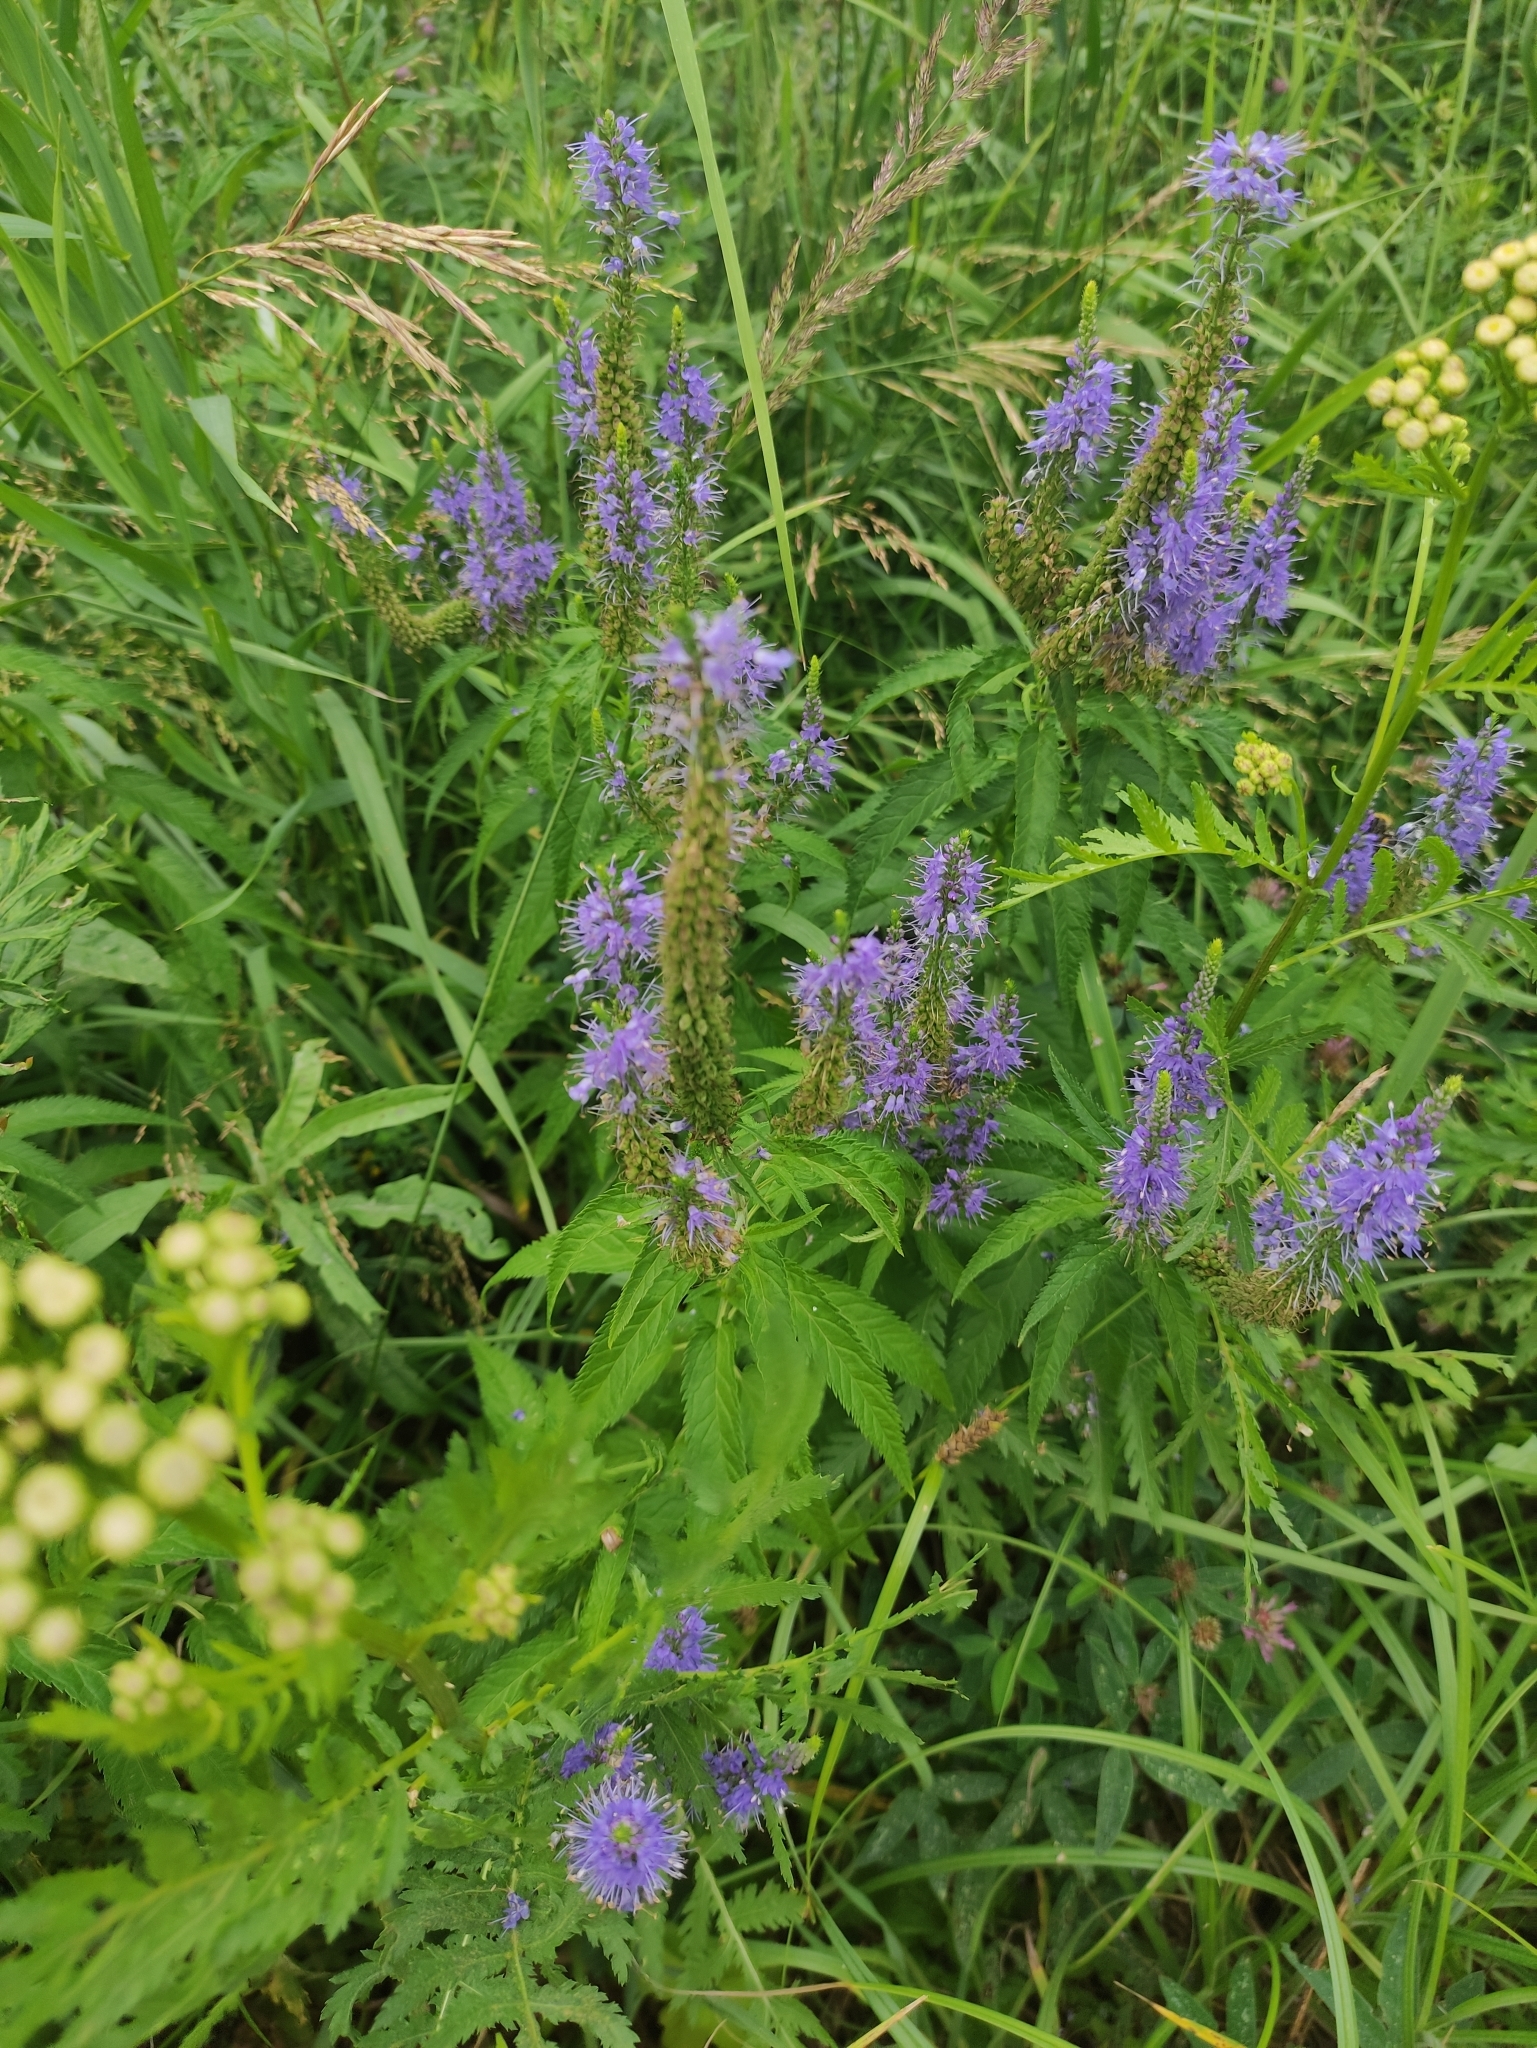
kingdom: Plantae
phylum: Tracheophyta
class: Magnoliopsida
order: Lamiales
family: Plantaginaceae
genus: Veronica
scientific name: Veronica longifolia
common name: Garden speedwell
